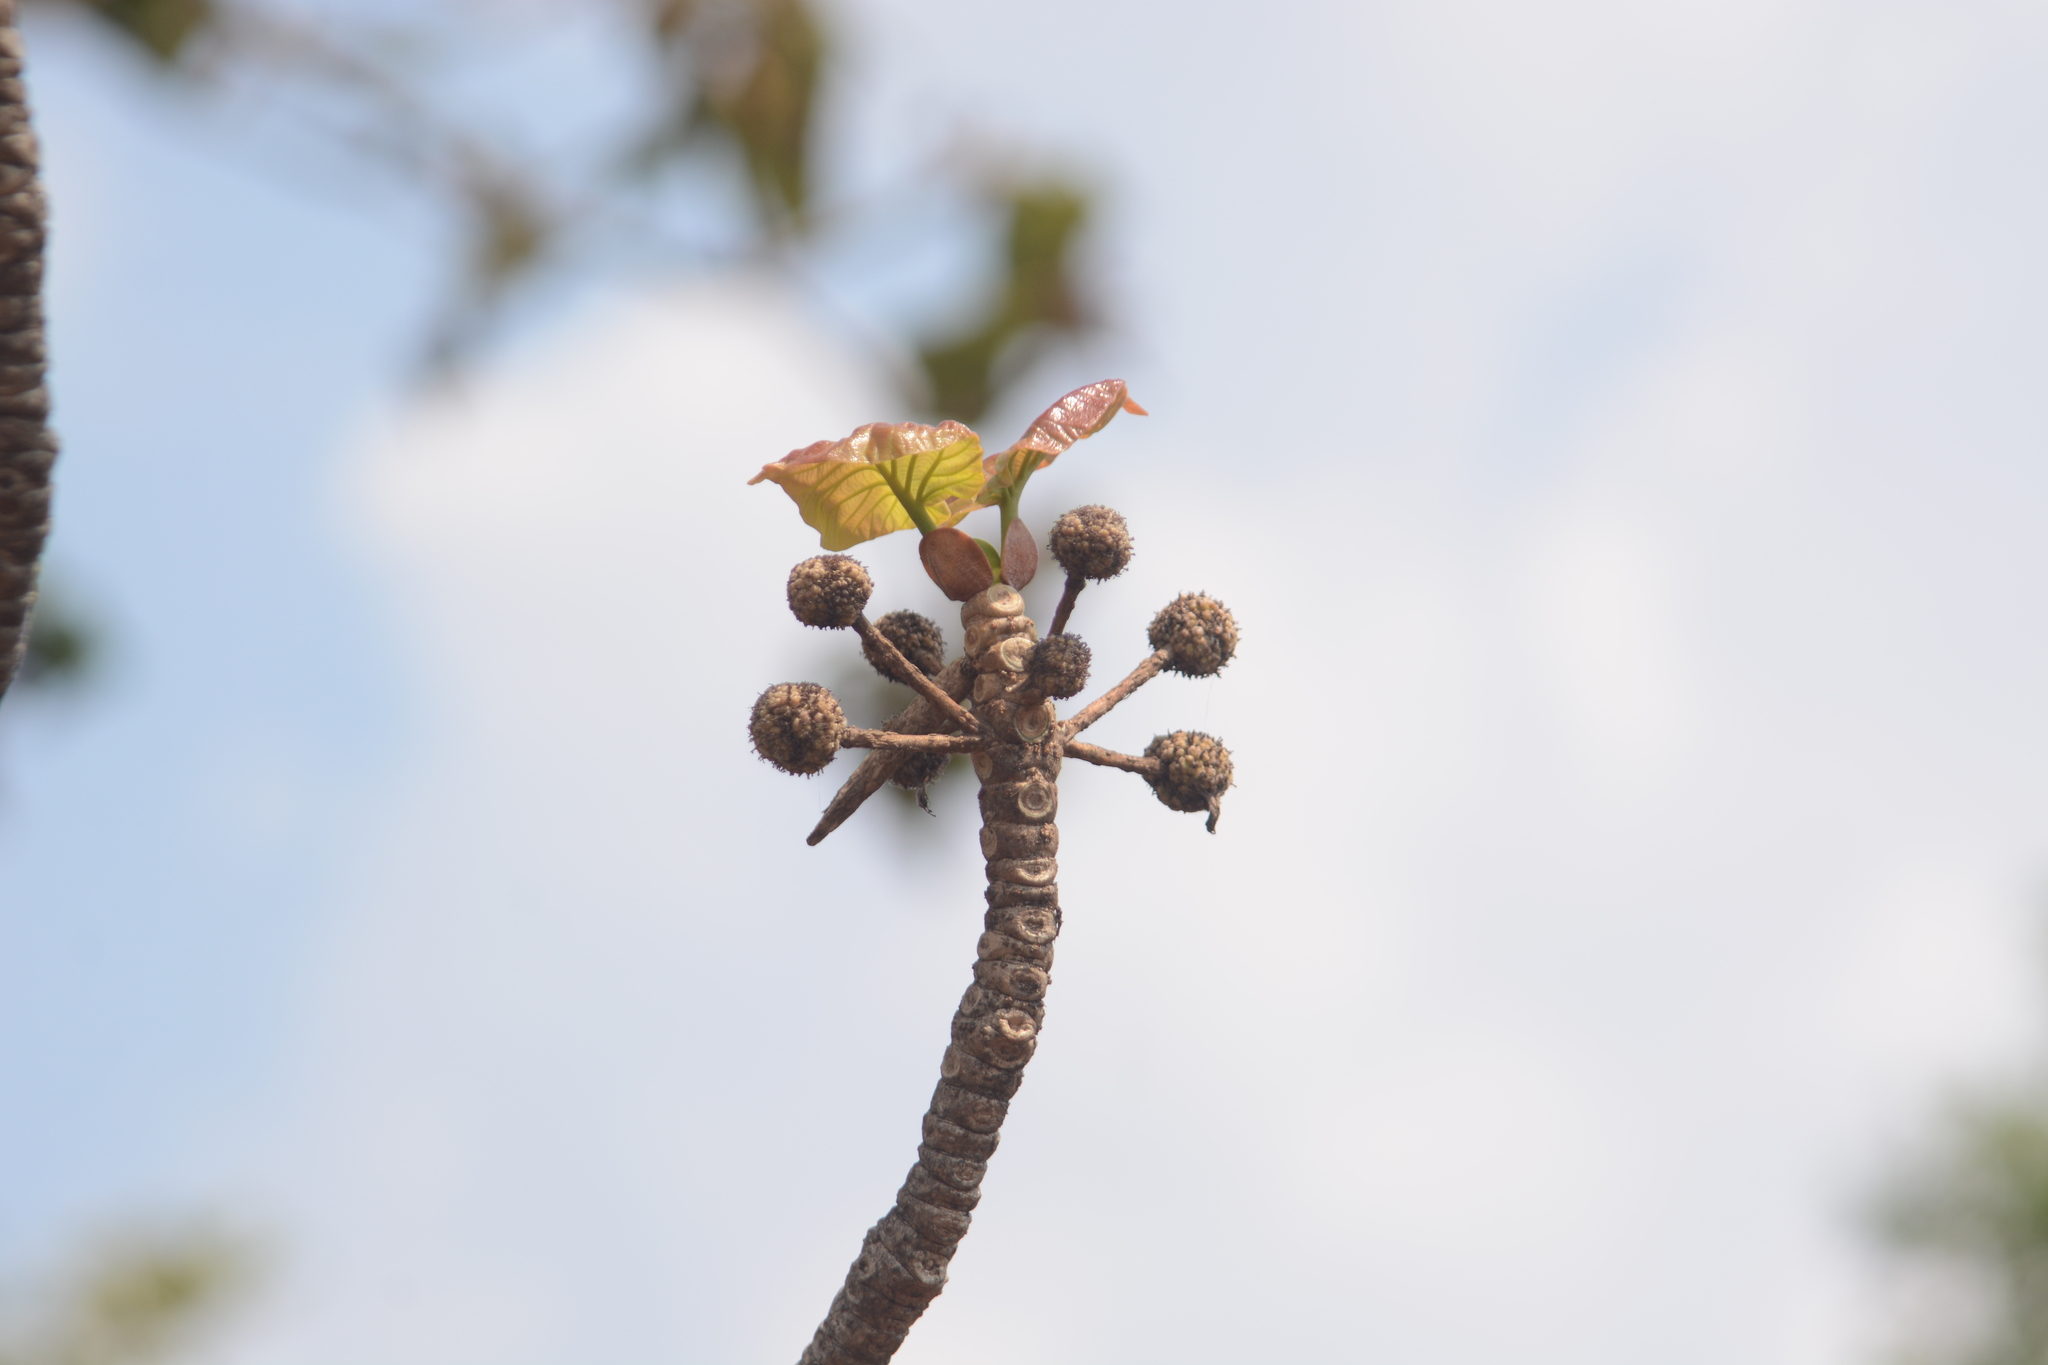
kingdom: Plantae
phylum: Tracheophyta
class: Magnoliopsida
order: Gentianales
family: Rubiaceae
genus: Adina
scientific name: Adina cordifolia
